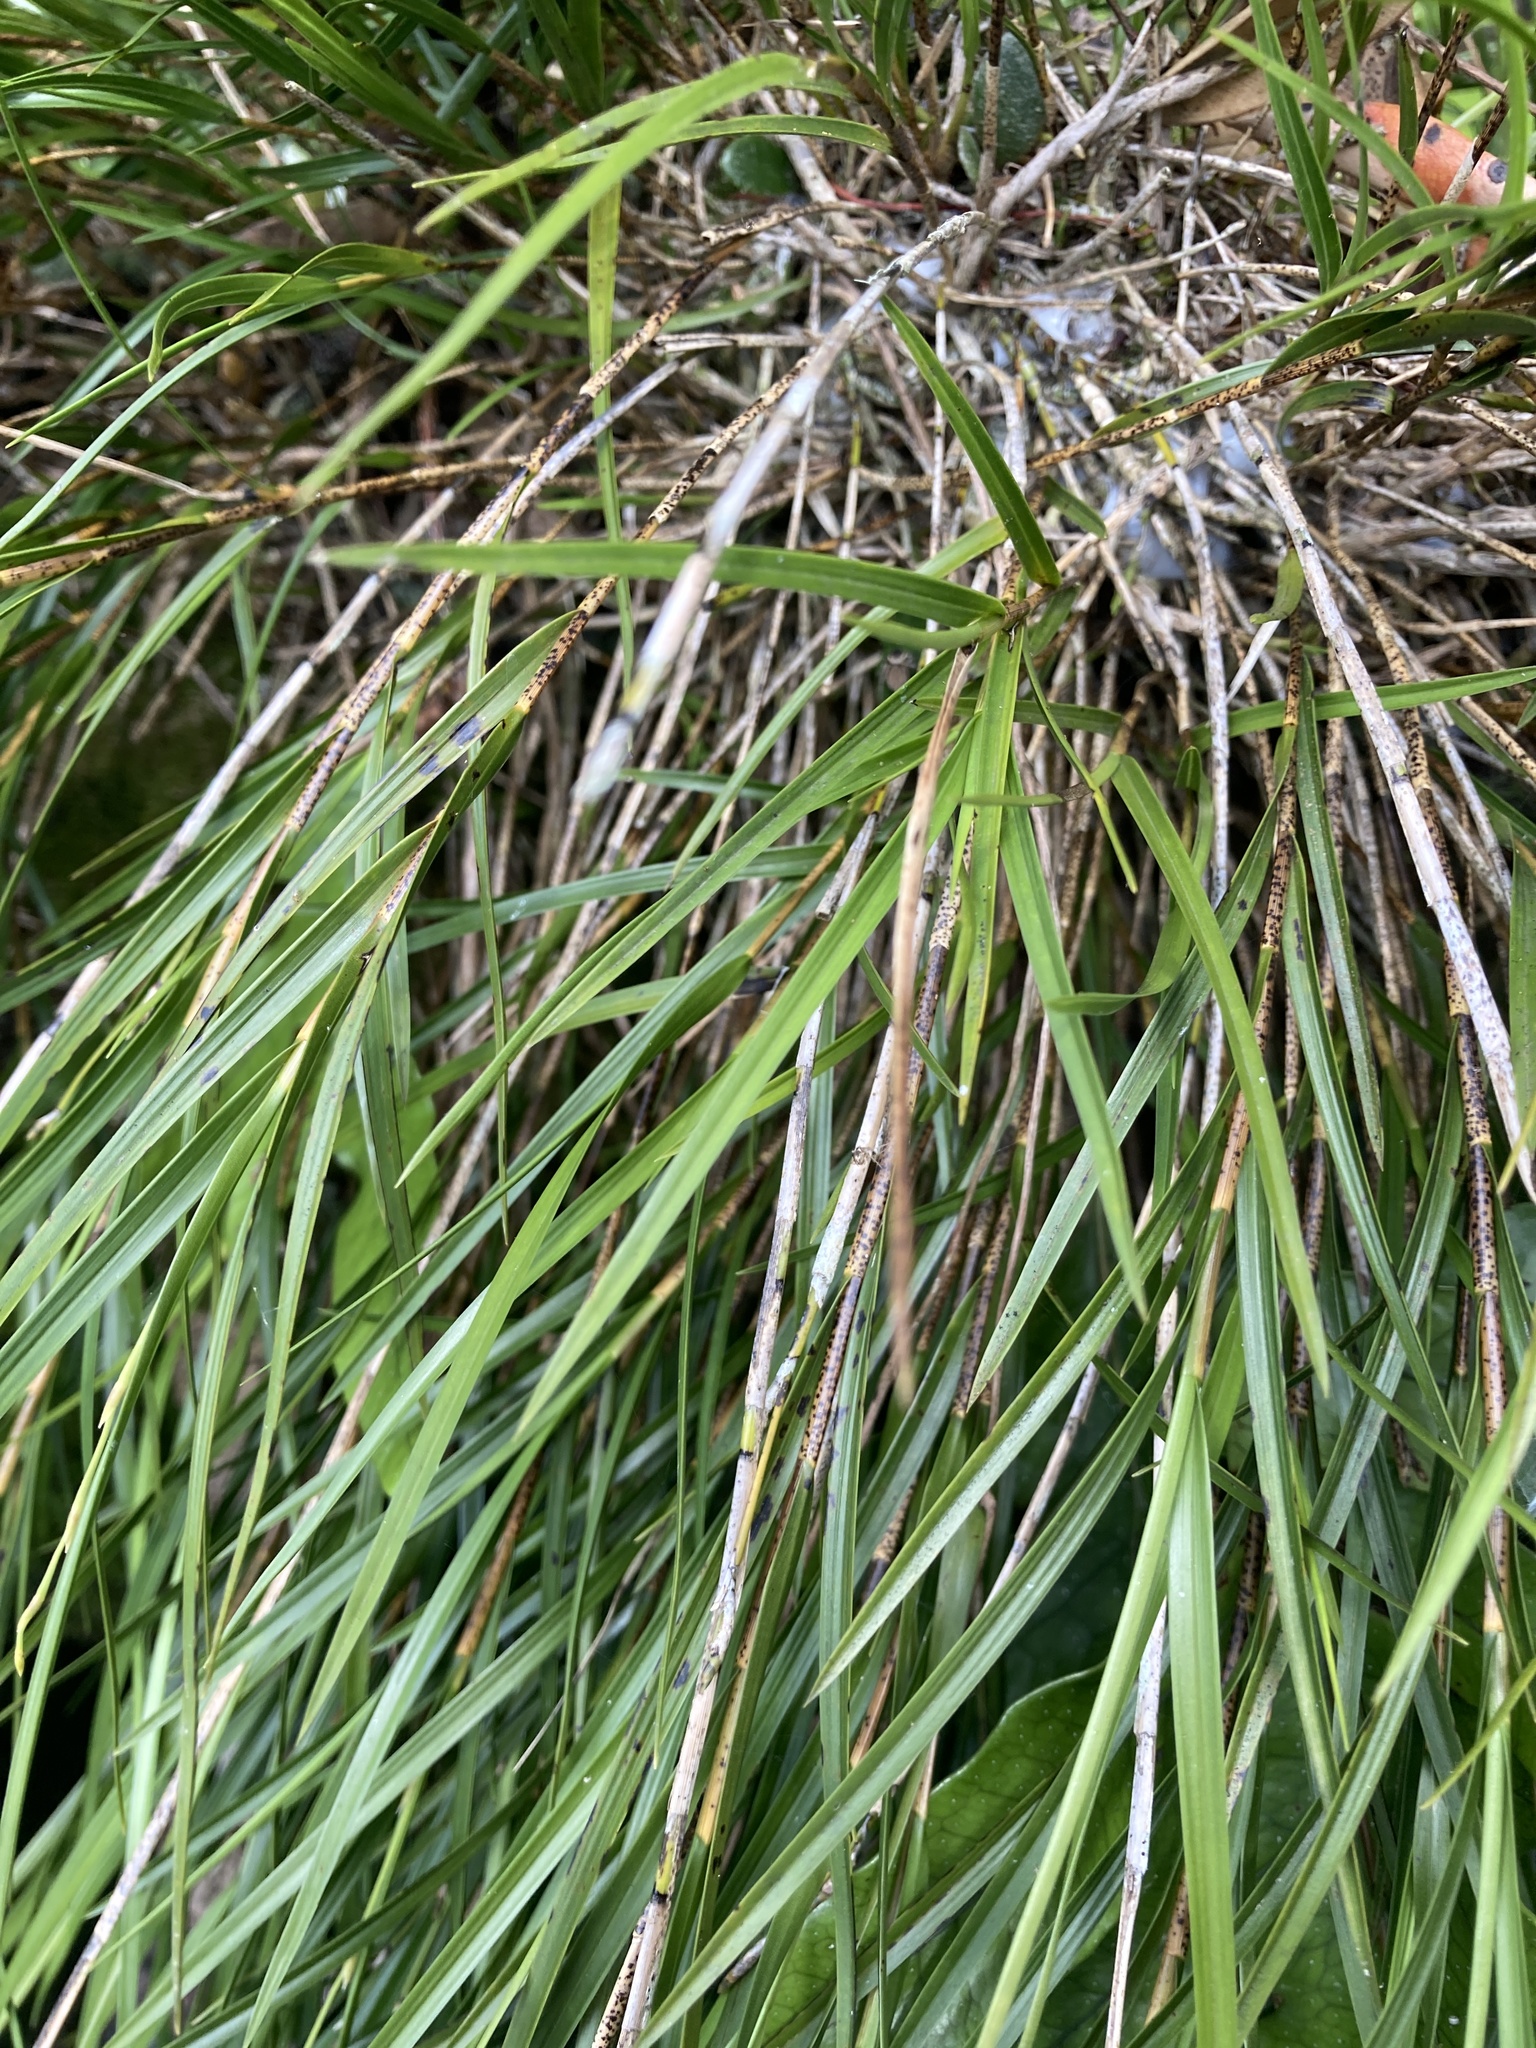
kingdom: Plantae
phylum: Tracheophyta
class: Liliopsida
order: Asparagales
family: Orchidaceae
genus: Earina
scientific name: Earina mucronata
